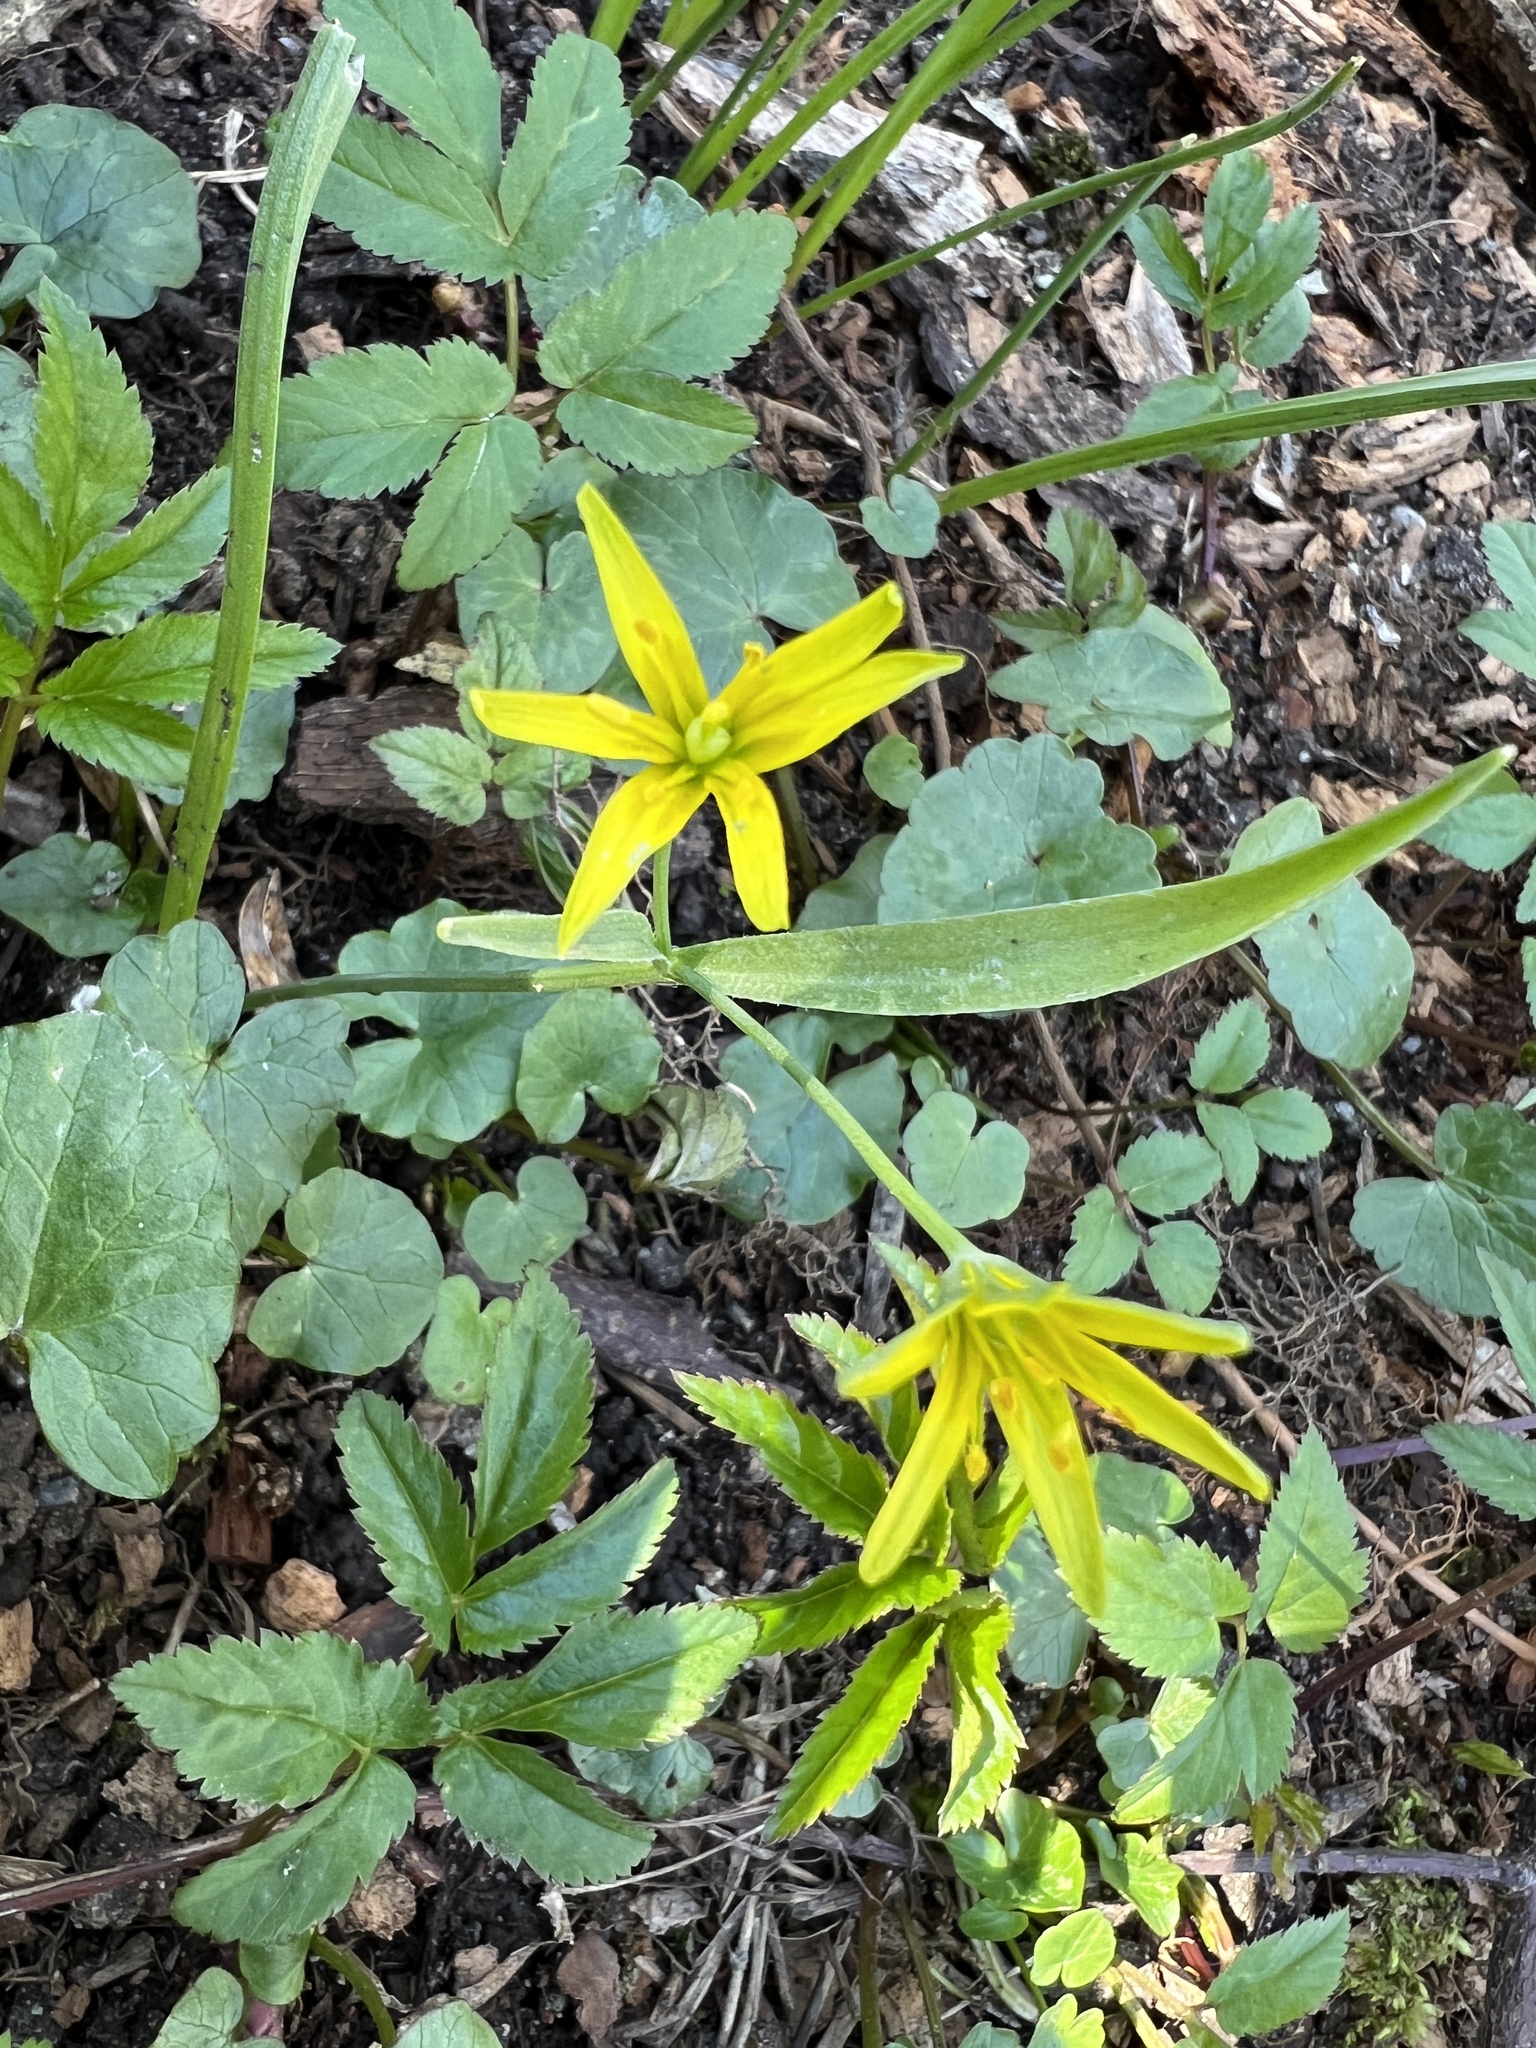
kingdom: Plantae
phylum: Tracheophyta
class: Liliopsida
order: Liliales
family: Liliaceae
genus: Gagea
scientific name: Gagea lutea
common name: Yellow star-of-bethlehem
